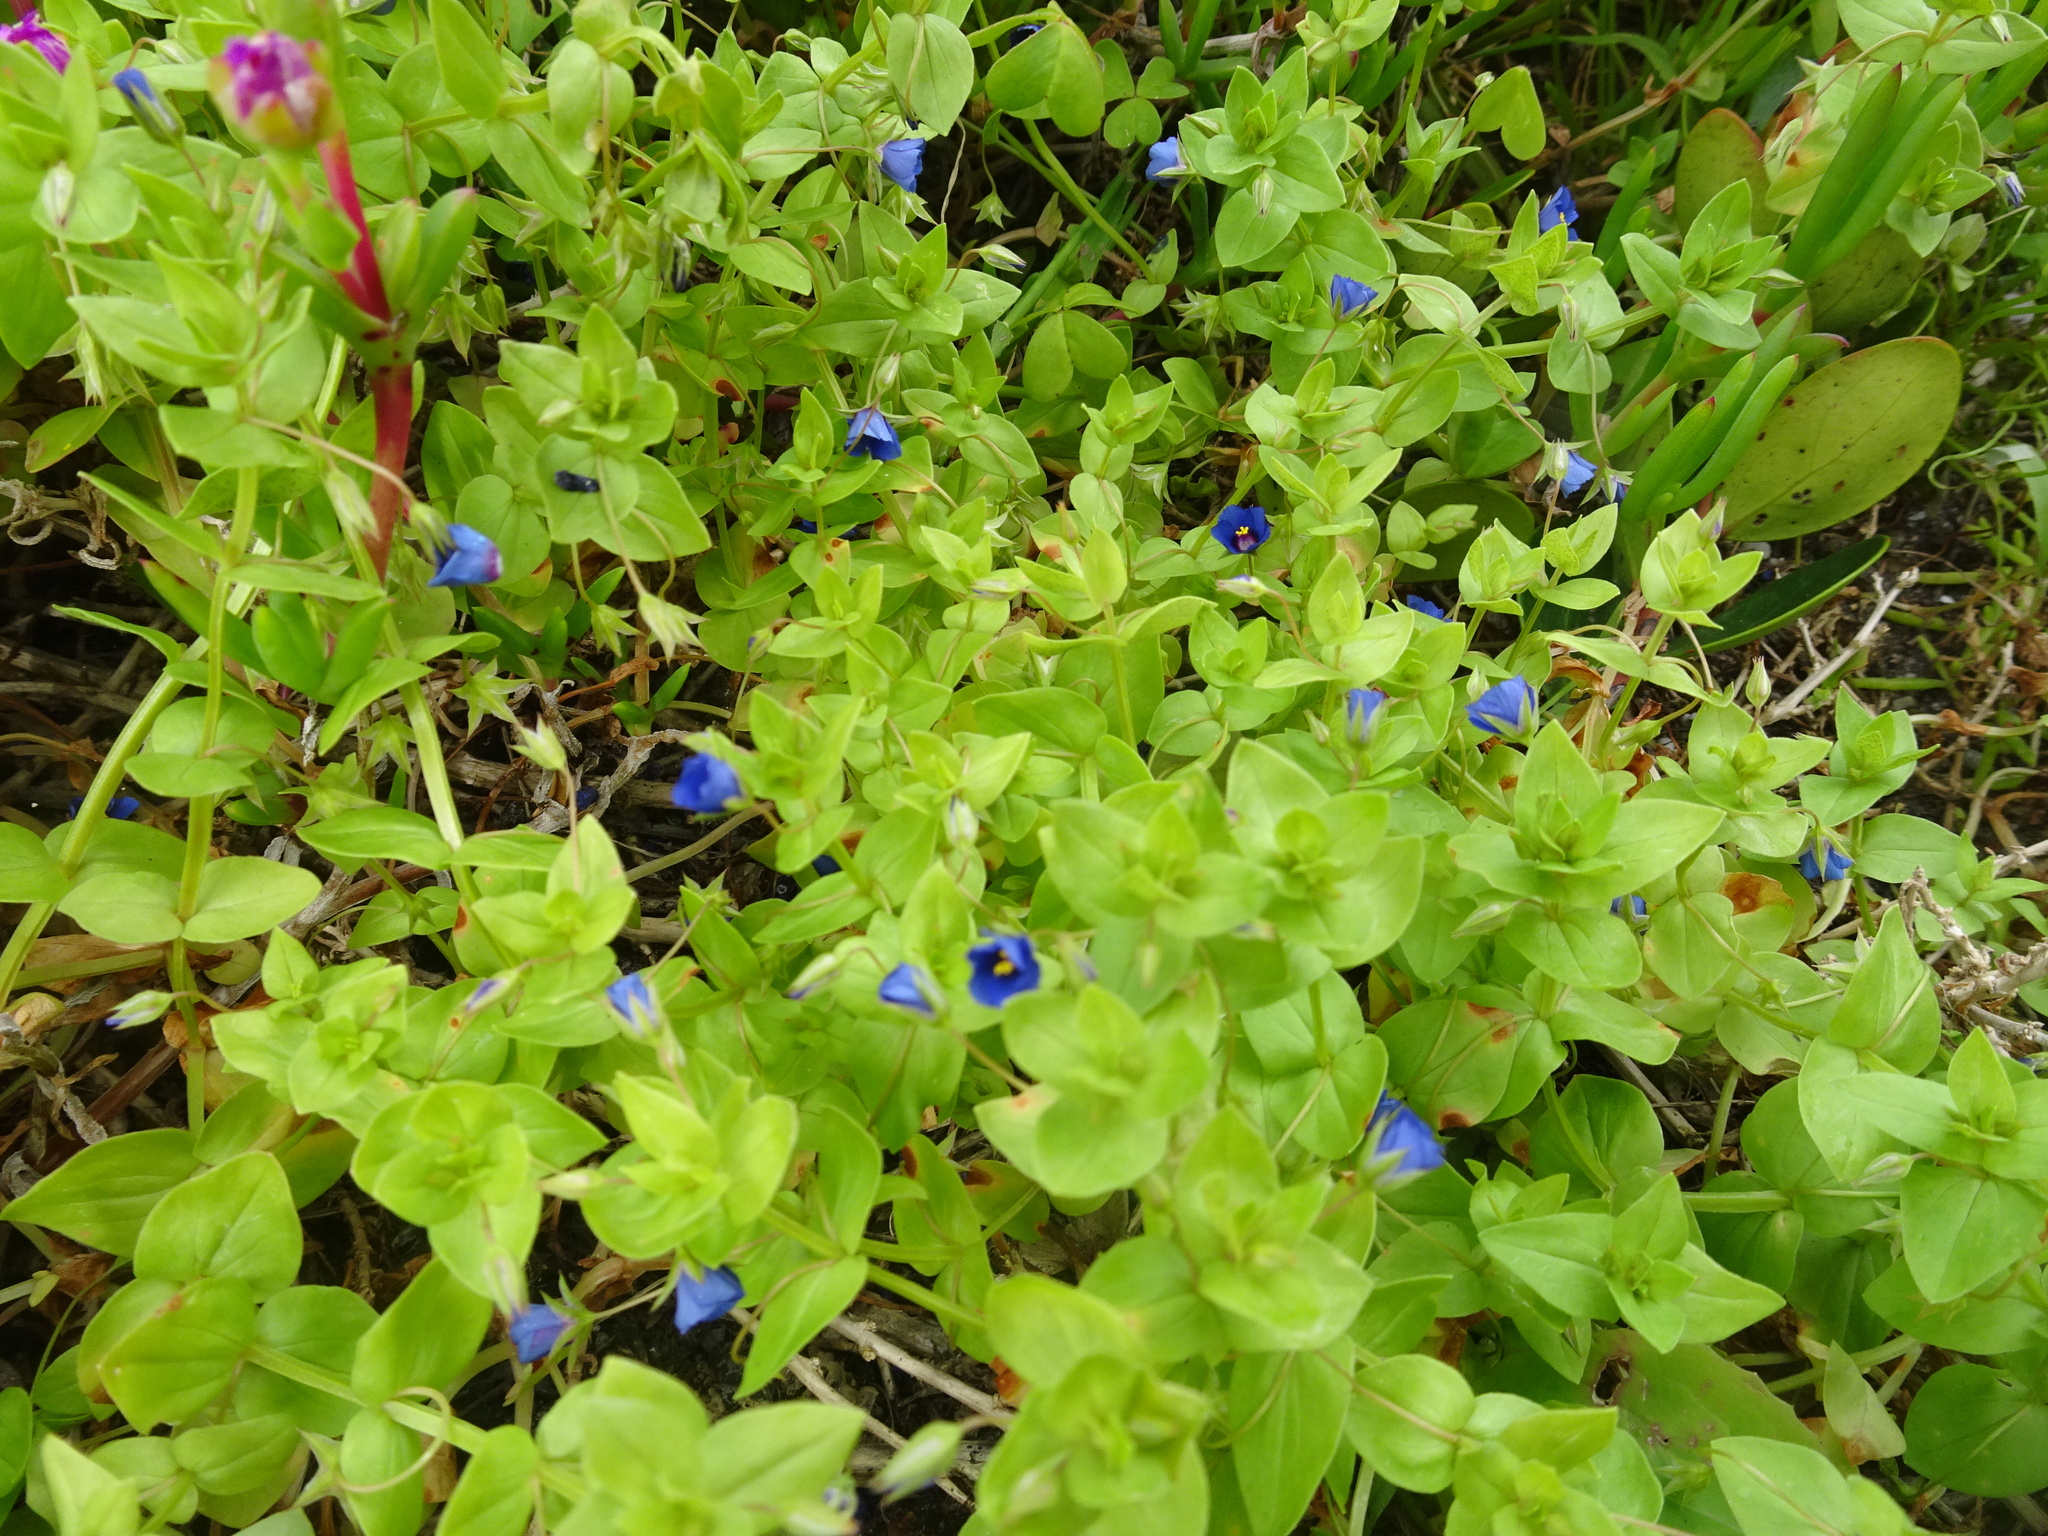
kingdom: Plantae
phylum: Tracheophyta
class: Magnoliopsida
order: Ericales
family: Primulaceae
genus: Lysimachia
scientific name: Lysimachia loeflingii
